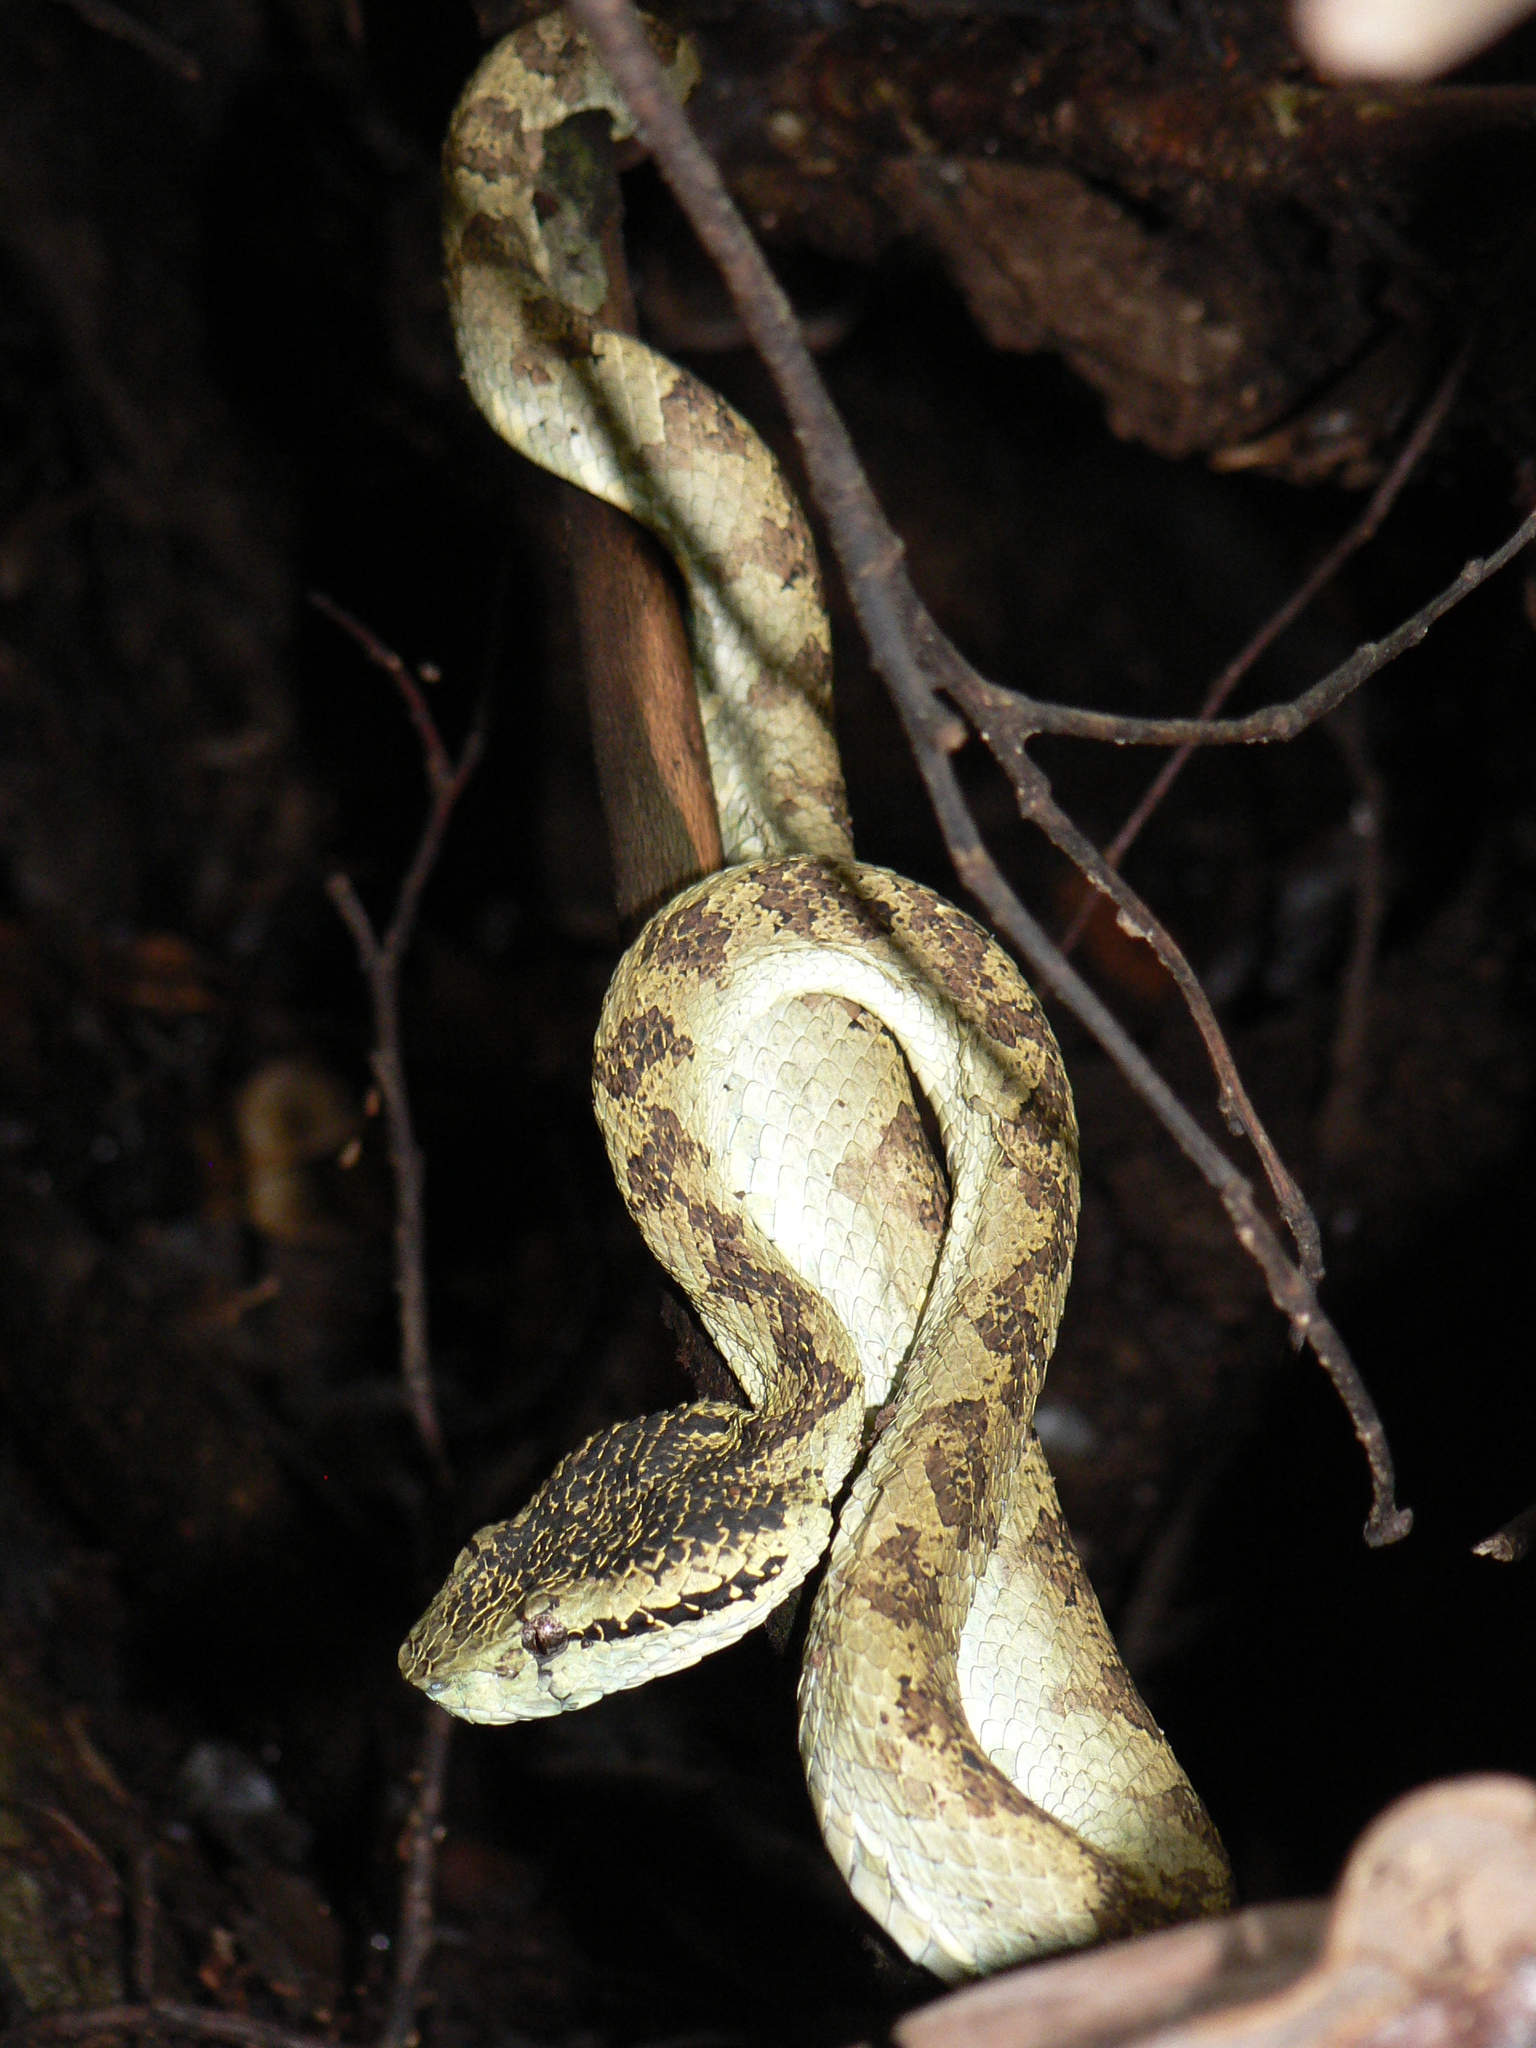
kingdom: Animalia
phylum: Chordata
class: Squamata
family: Viperidae
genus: Craspedocephalus
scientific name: Craspedocephalus anamallensis
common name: Malabarian pit viper
